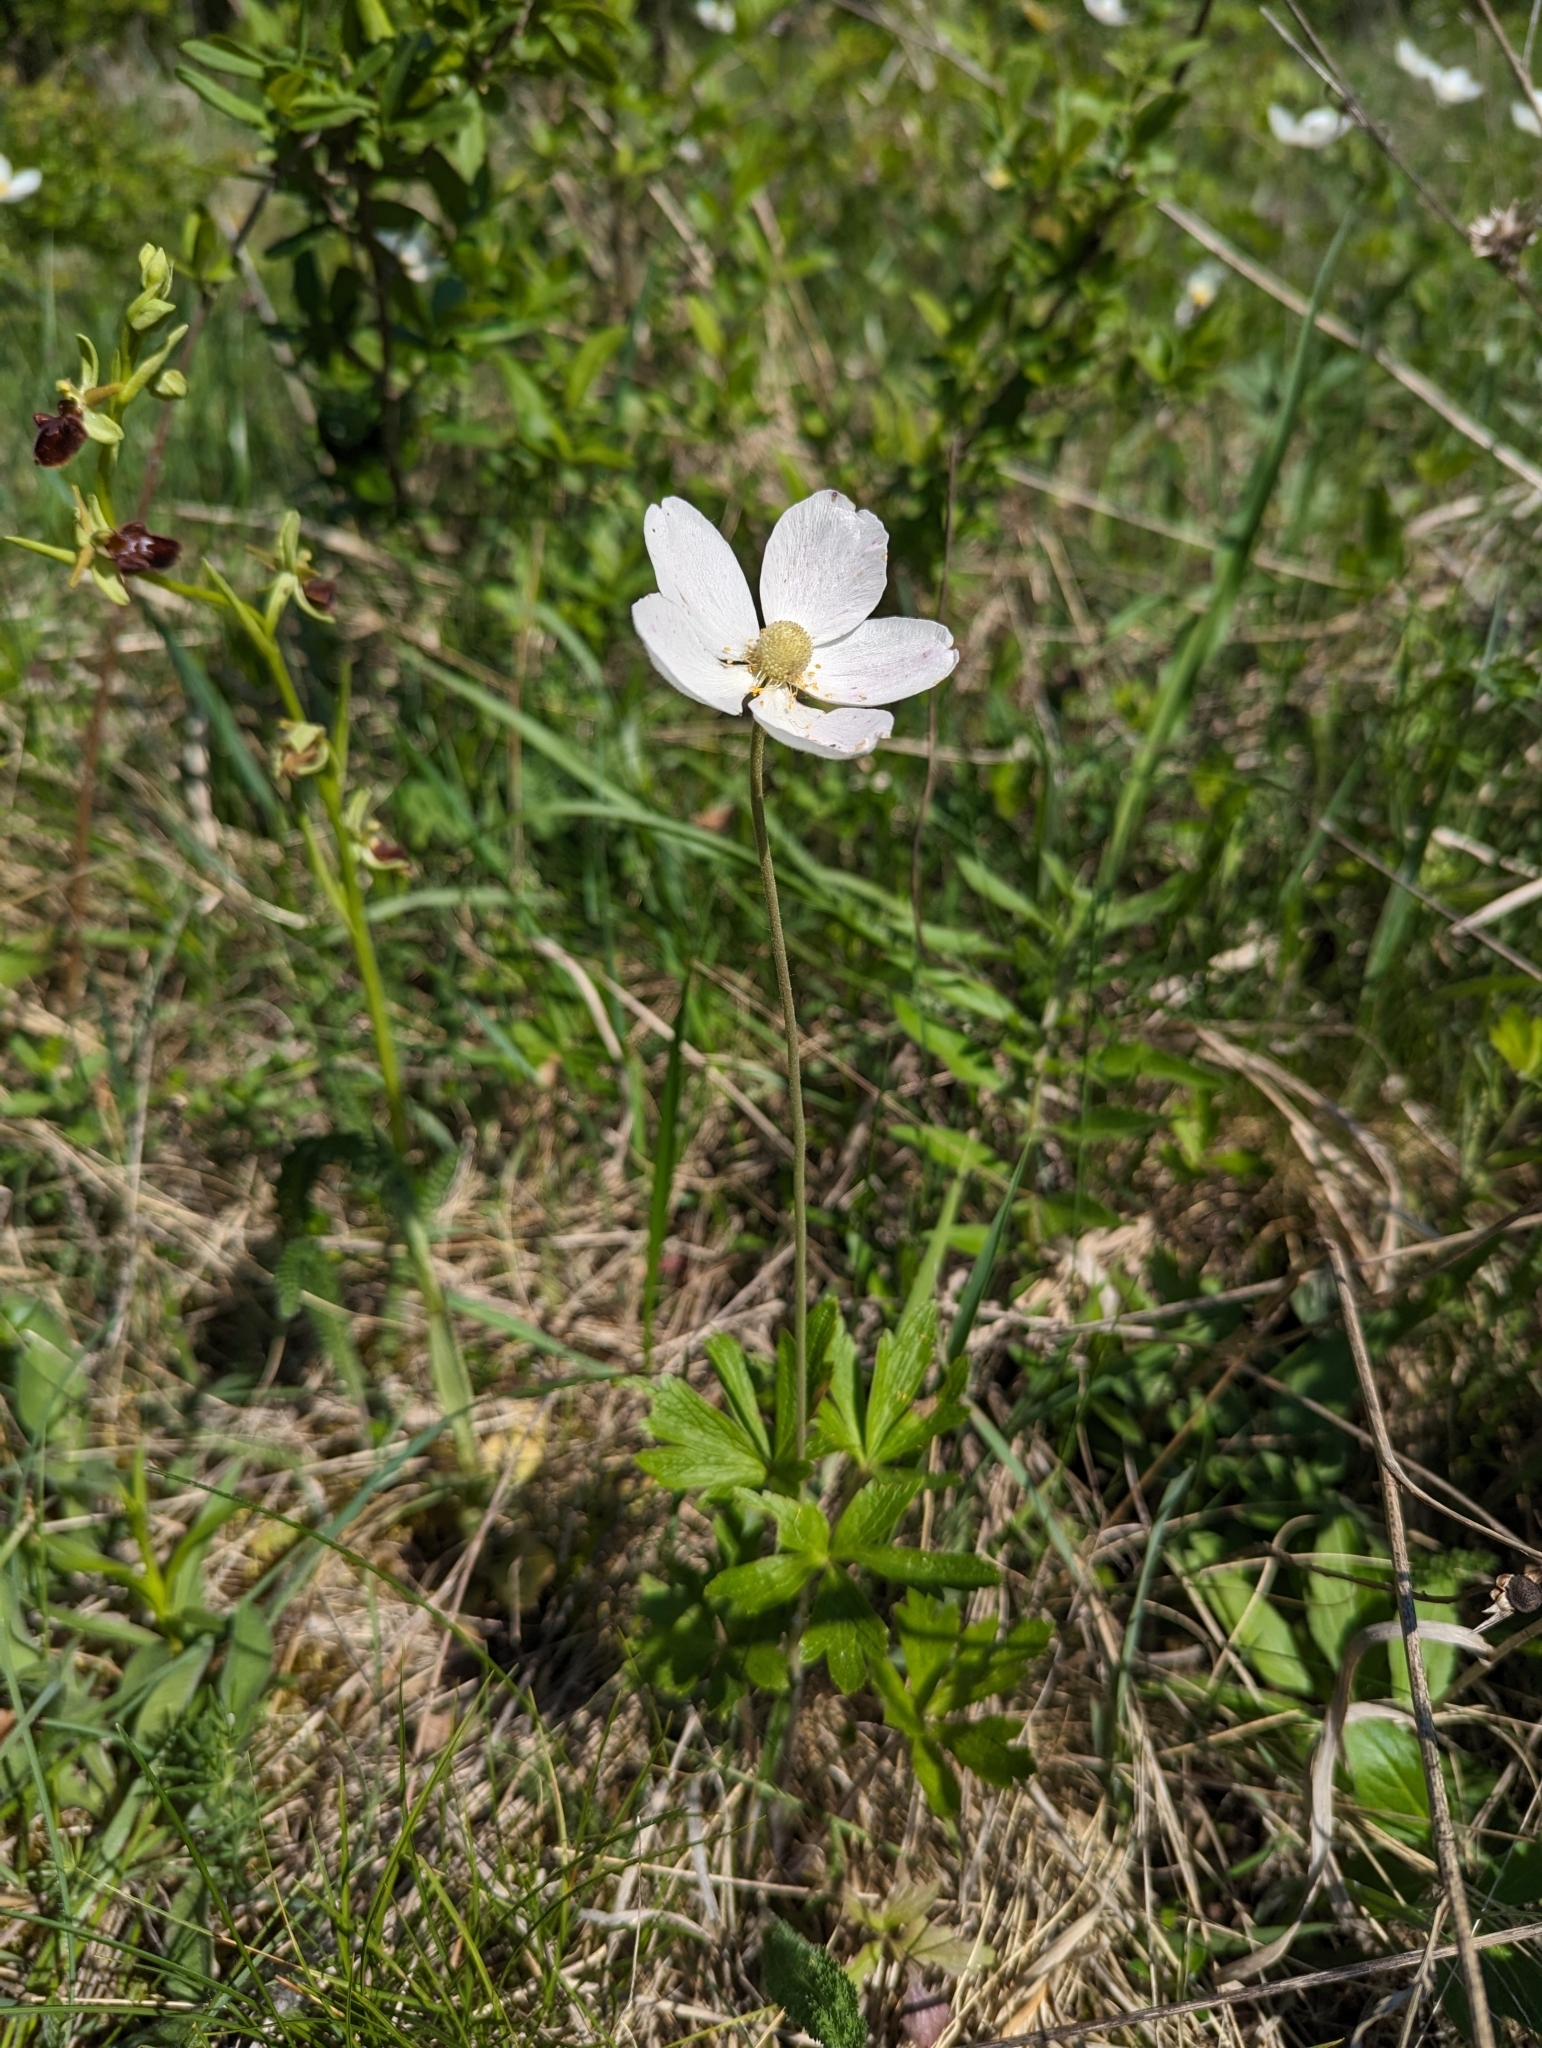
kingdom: Plantae
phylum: Tracheophyta
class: Magnoliopsida
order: Ranunculales
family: Ranunculaceae
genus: Anemone
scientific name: Anemone sylvestris
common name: Snowdrop anemone
